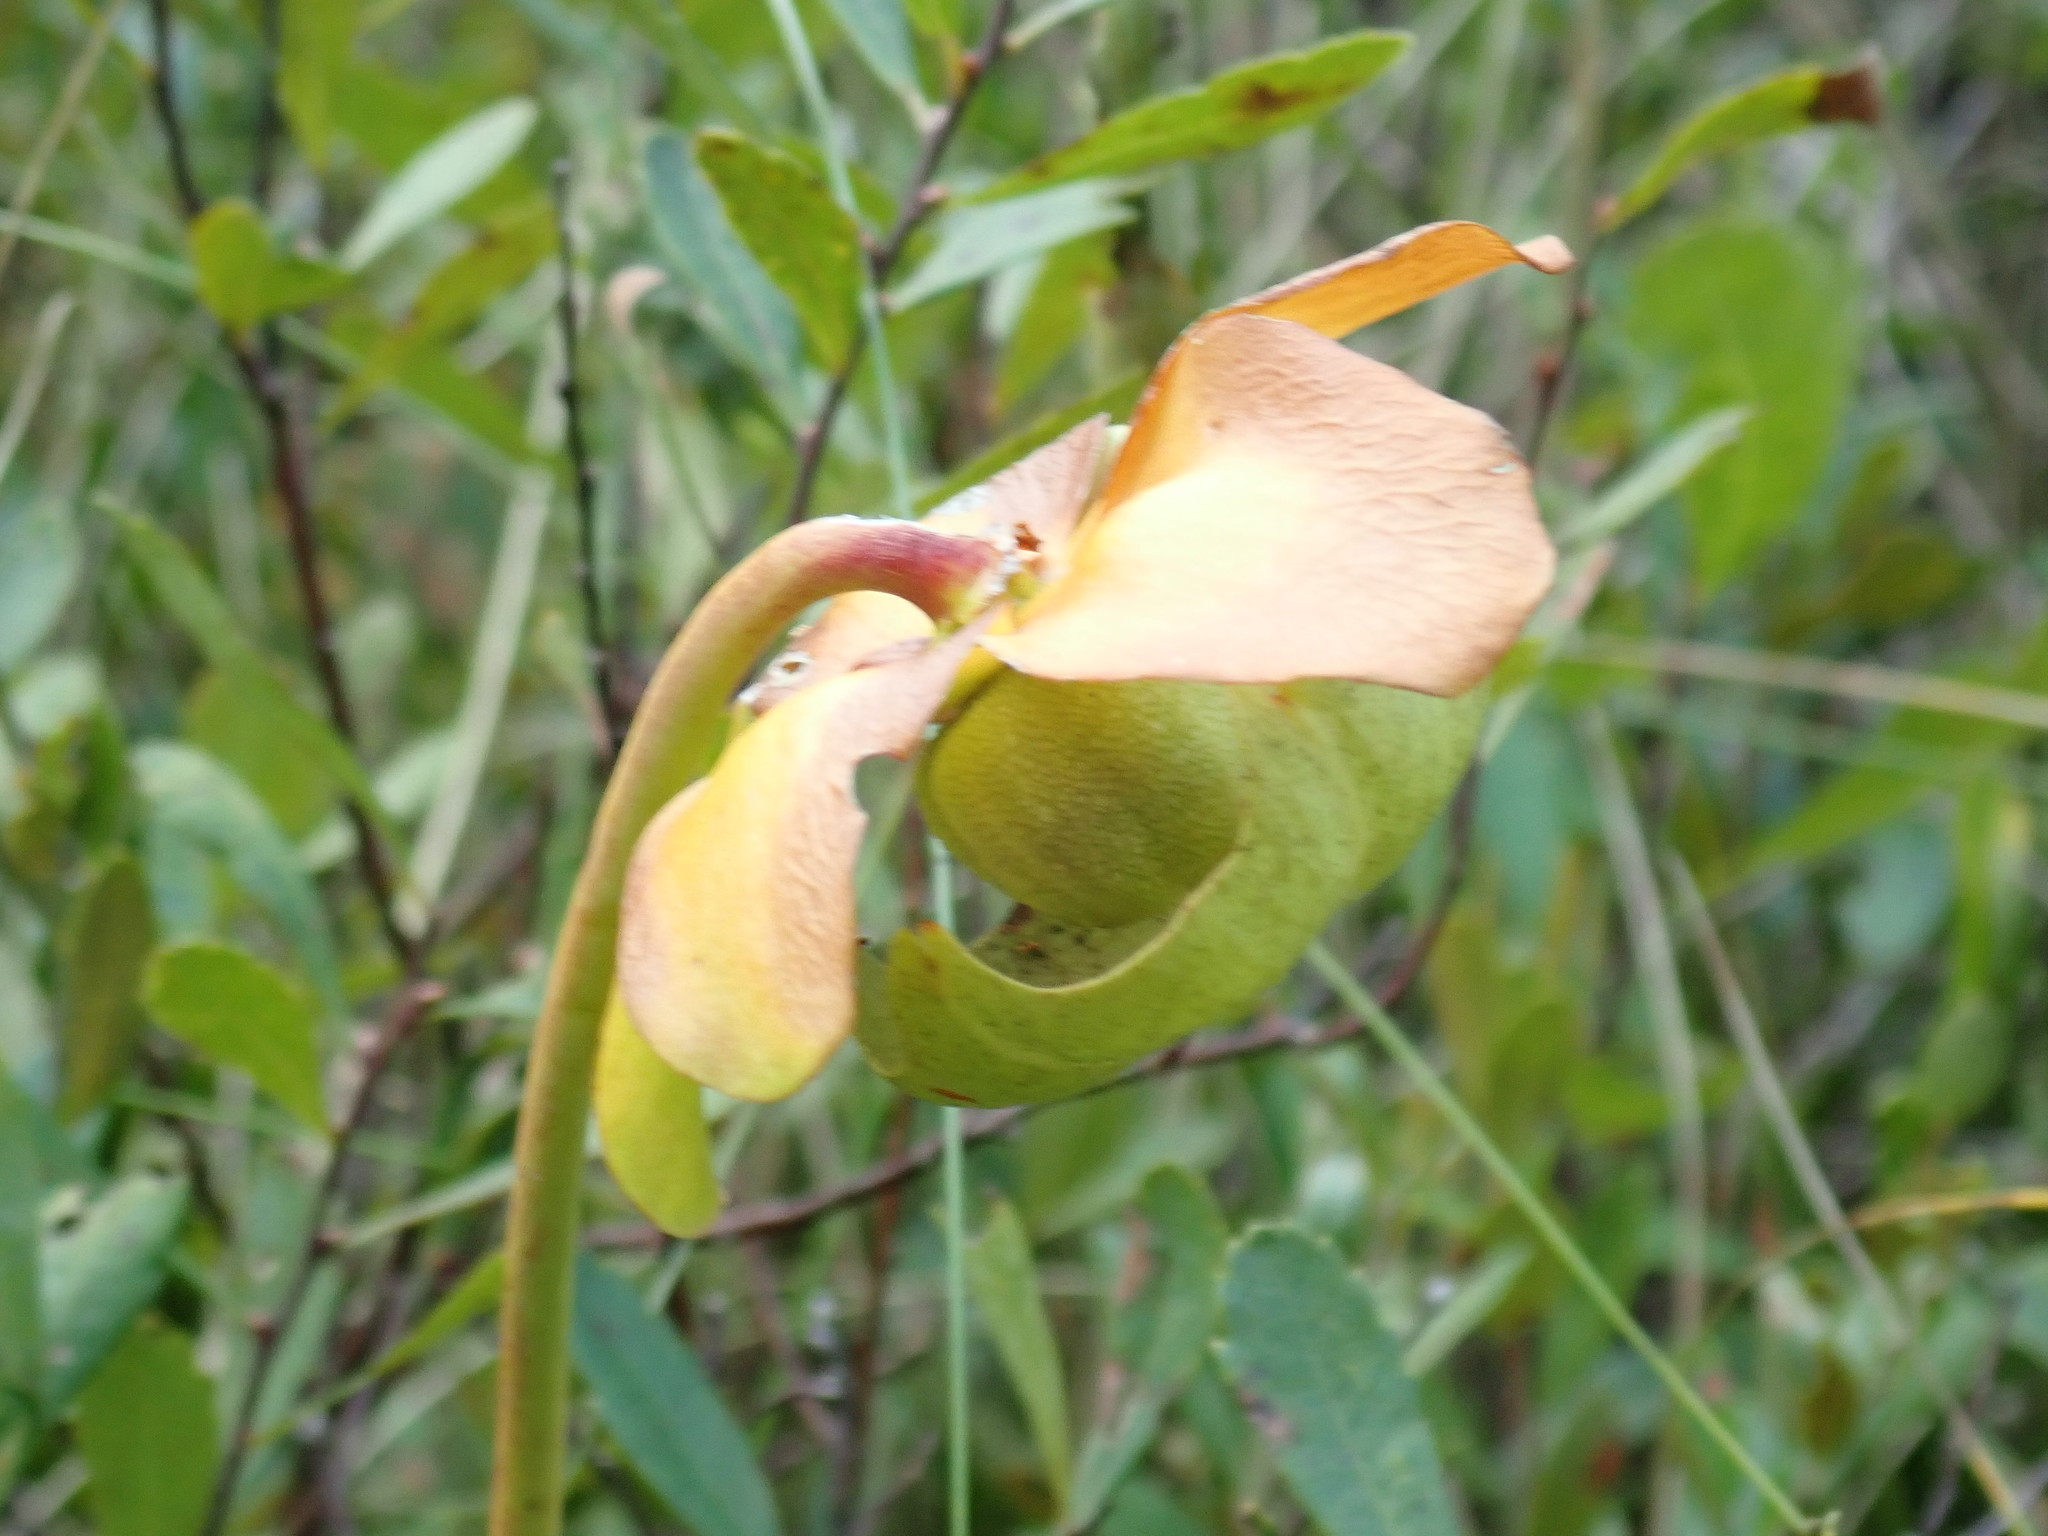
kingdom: Plantae
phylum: Tracheophyta
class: Magnoliopsida
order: Ericales
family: Sarraceniaceae
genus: Sarracenia
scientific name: Sarracenia purpurea
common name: Pitcherplant
